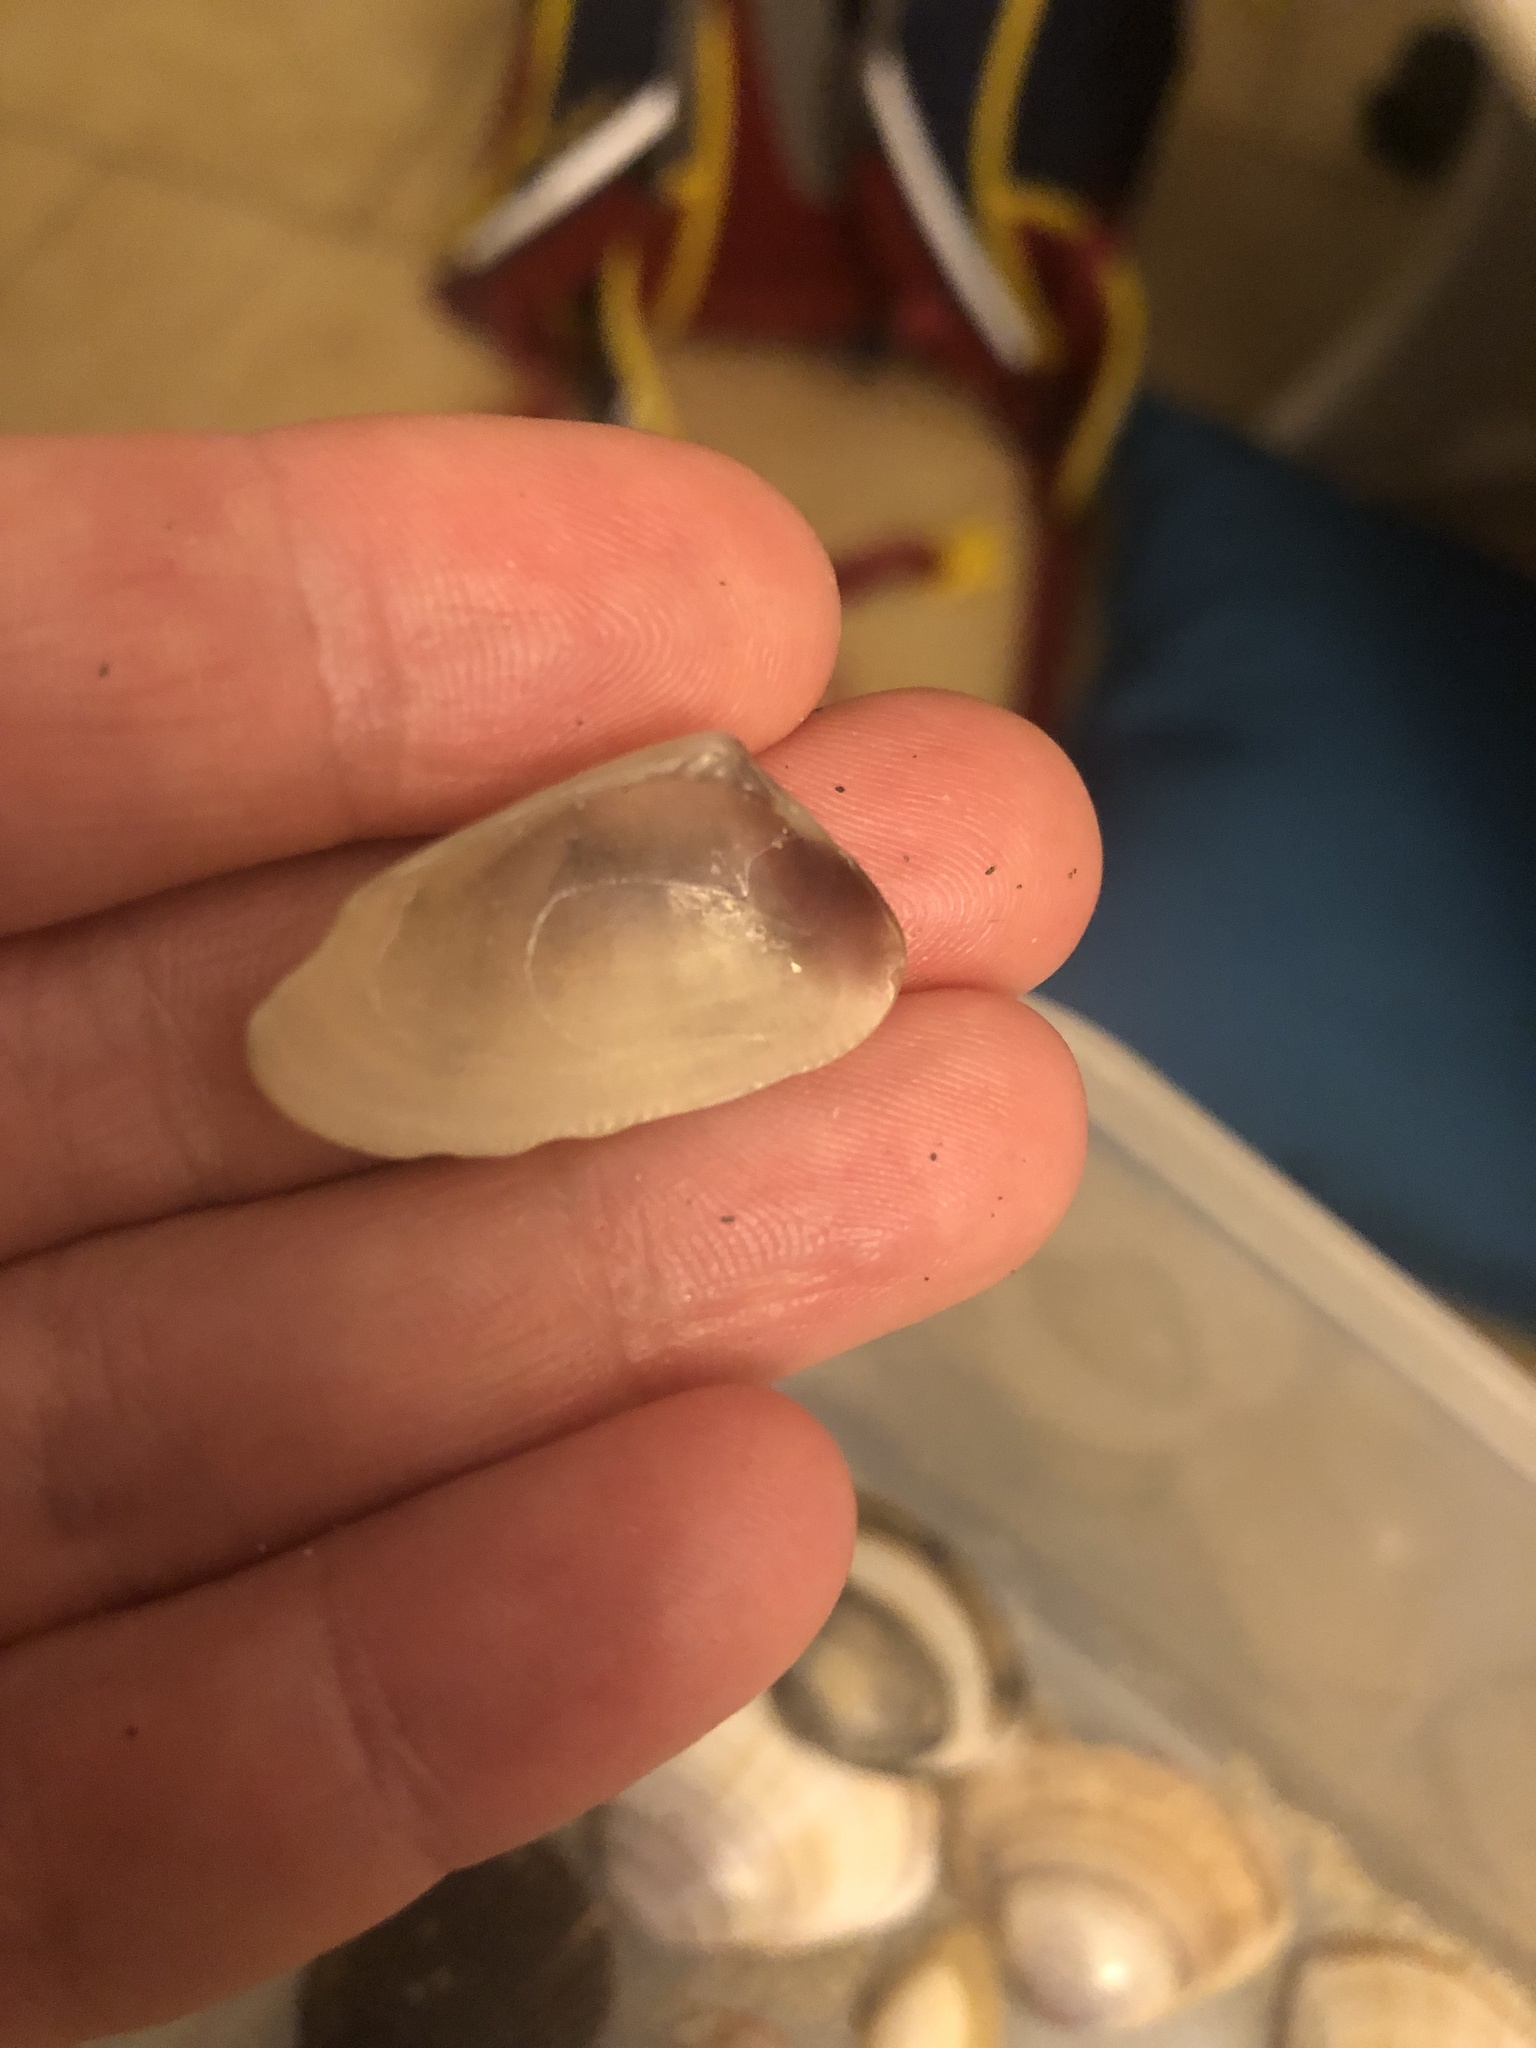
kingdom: Animalia
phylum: Mollusca
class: Bivalvia
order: Cardiida
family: Donacidae
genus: Donax
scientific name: Donax trunculus
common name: Truncate donax
